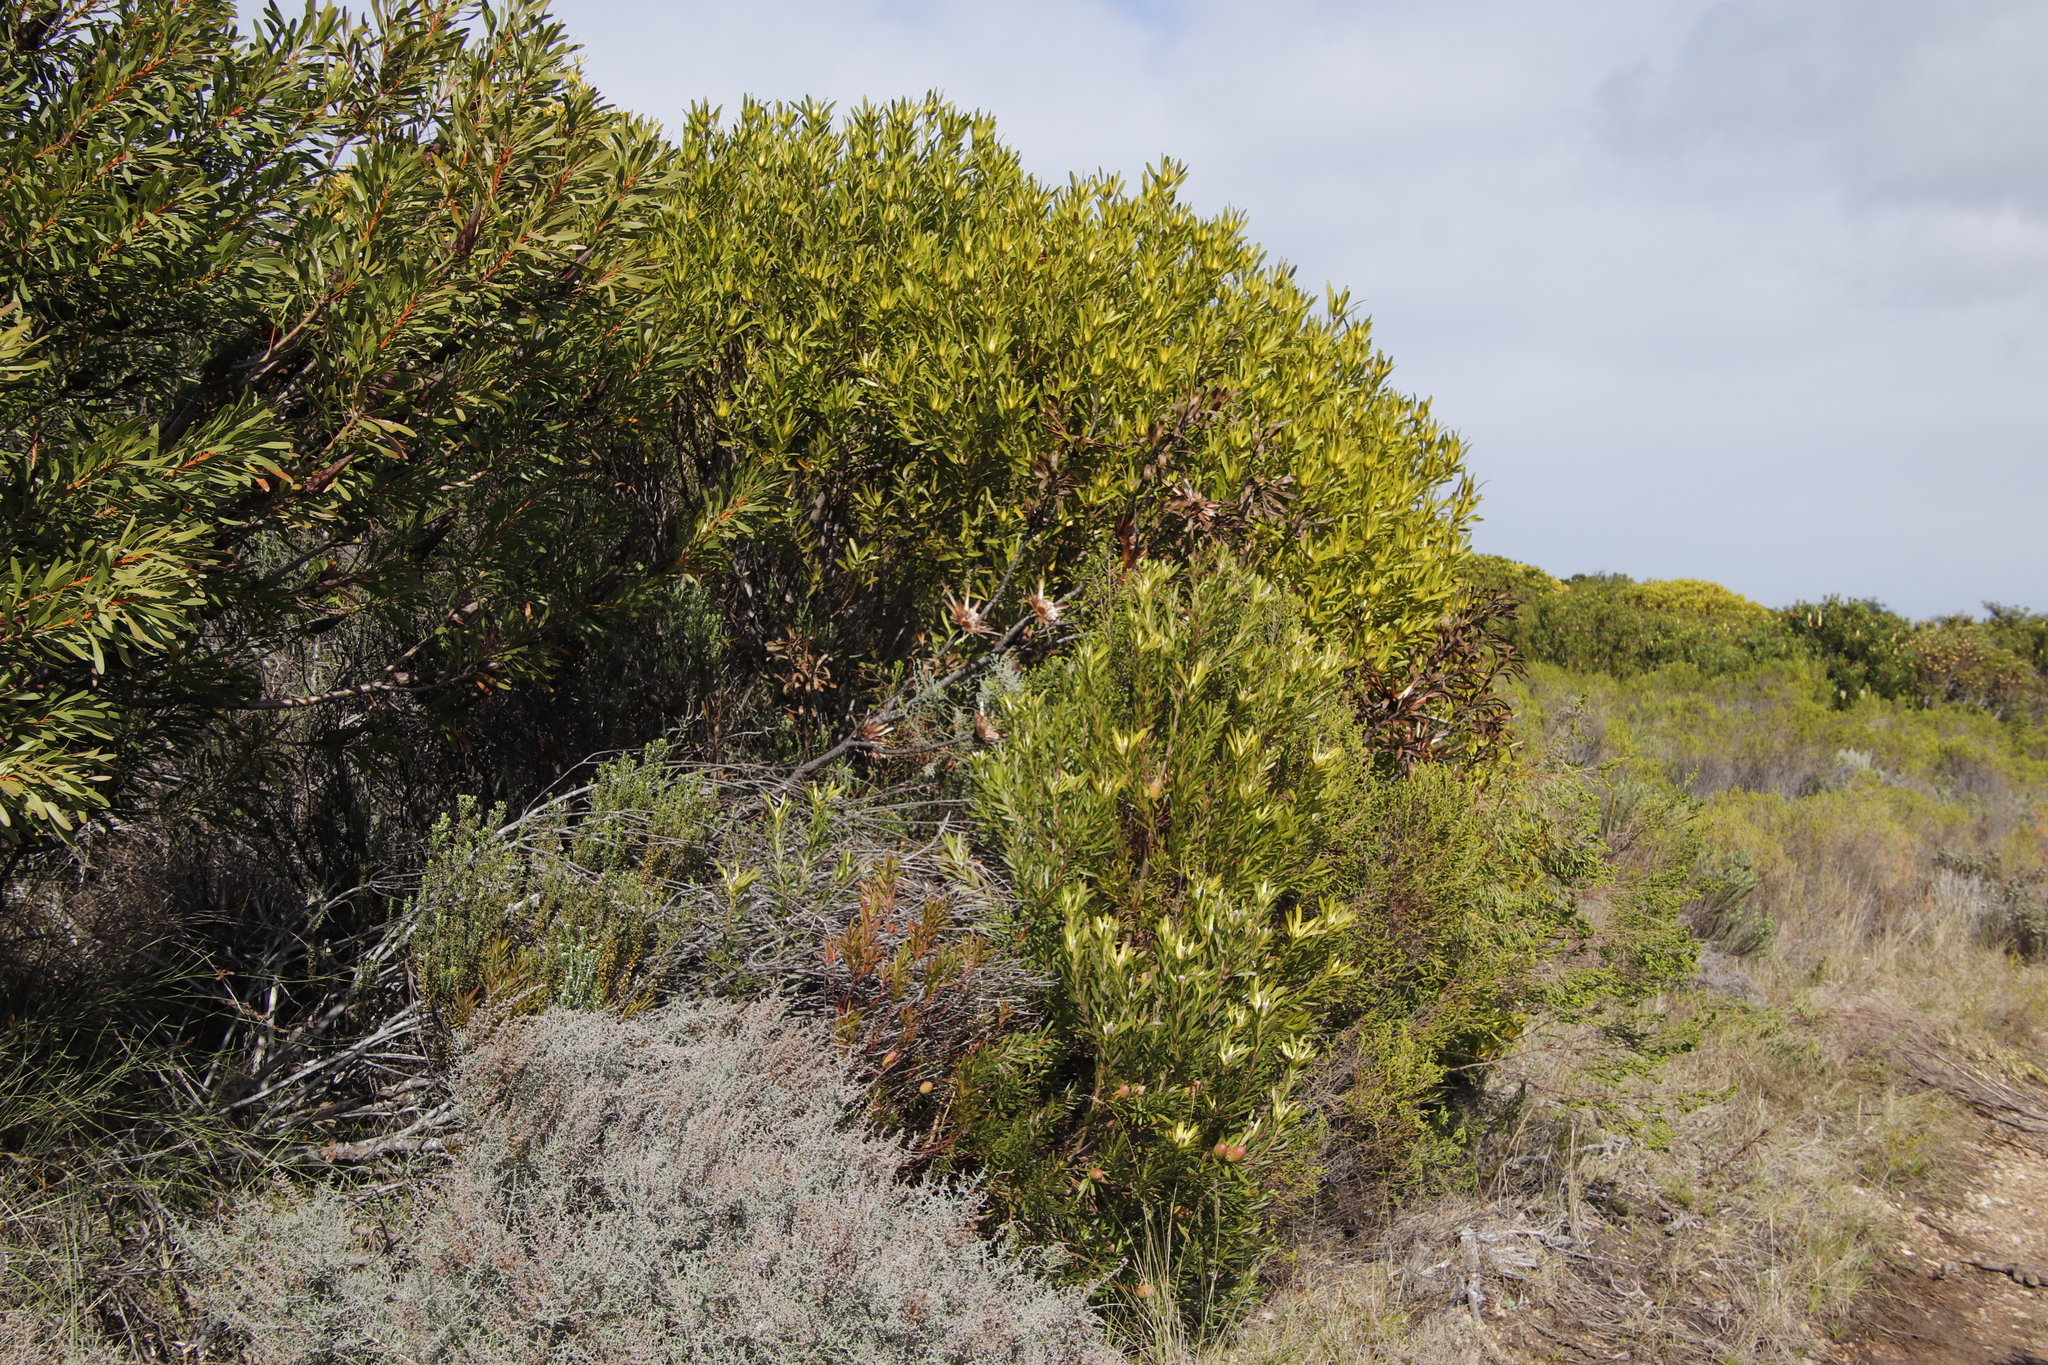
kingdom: Plantae
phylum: Tracheophyta
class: Magnoliopsida
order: Proteales
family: Proteaceae
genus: Leucadendron
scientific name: Leucadendron coniferum
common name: Dune conebush
